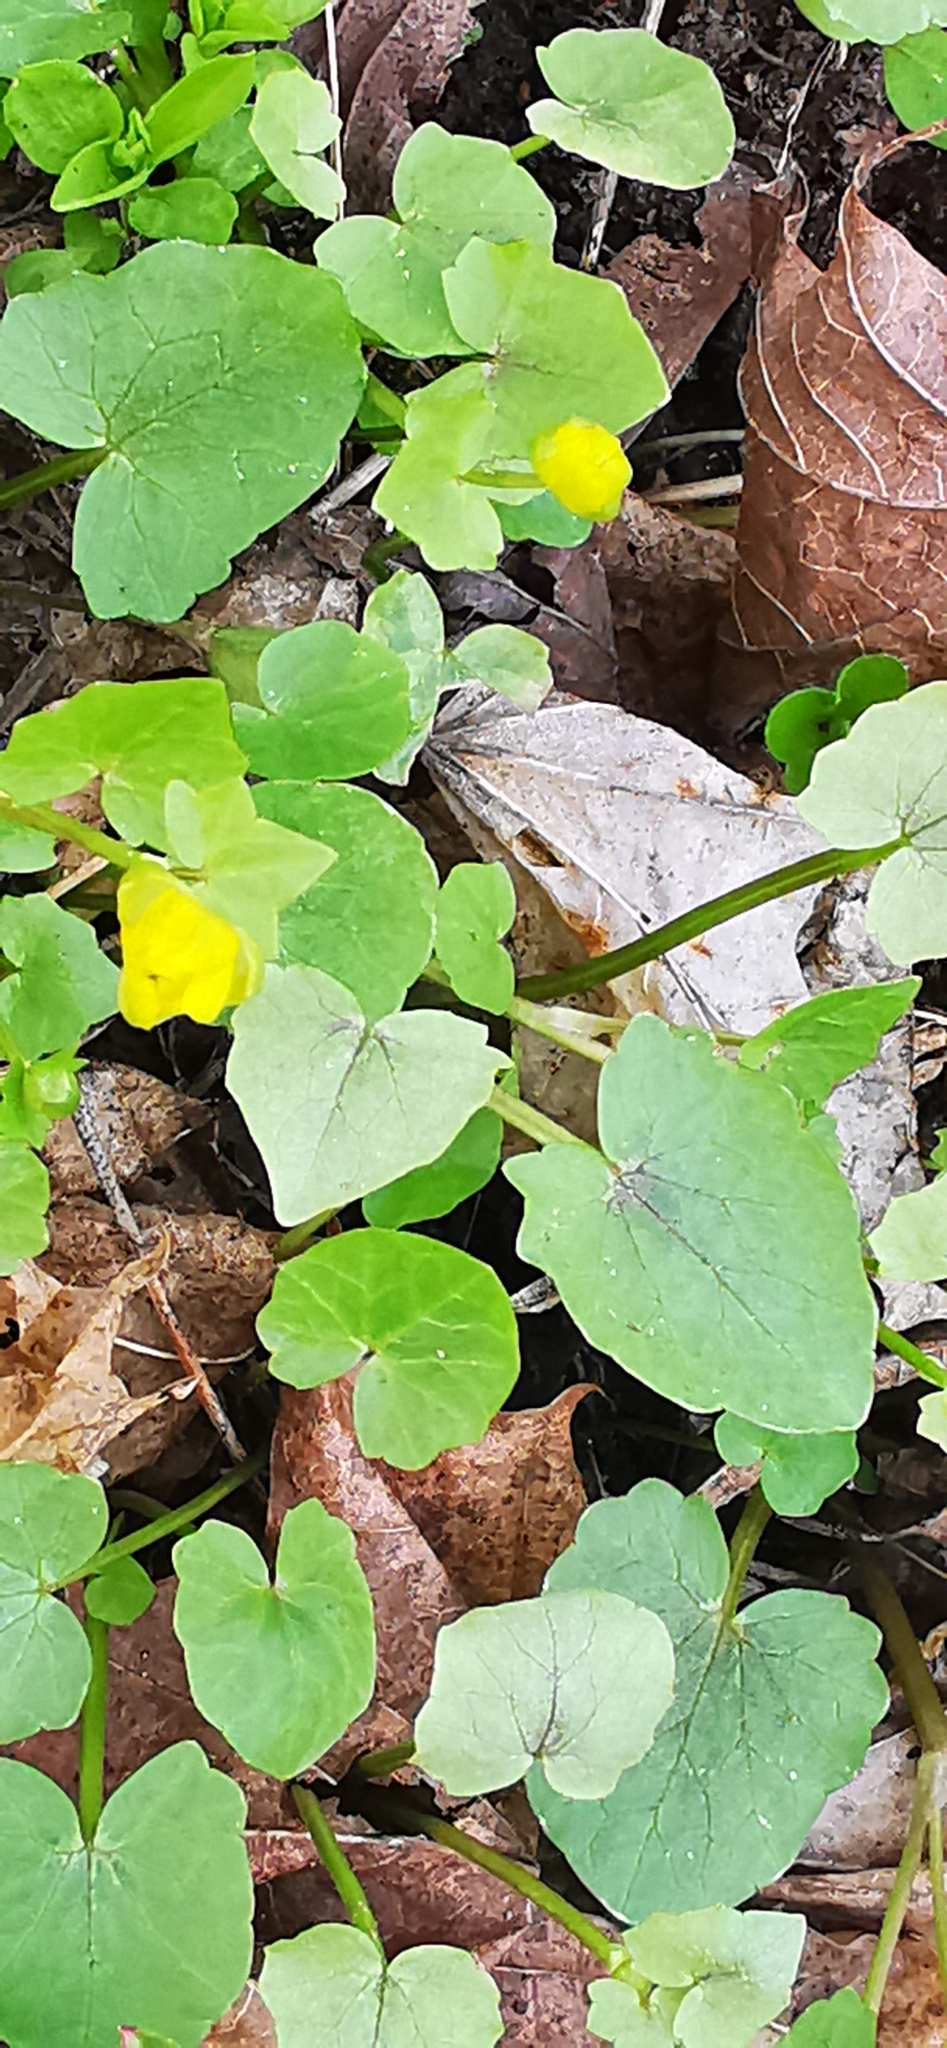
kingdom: Plantae
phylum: Tracheophyta
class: Magnoliopsida
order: Ranunculales
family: Ranunculaceae
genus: Ficaria
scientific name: Ficaria verna
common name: Lesser celandine
